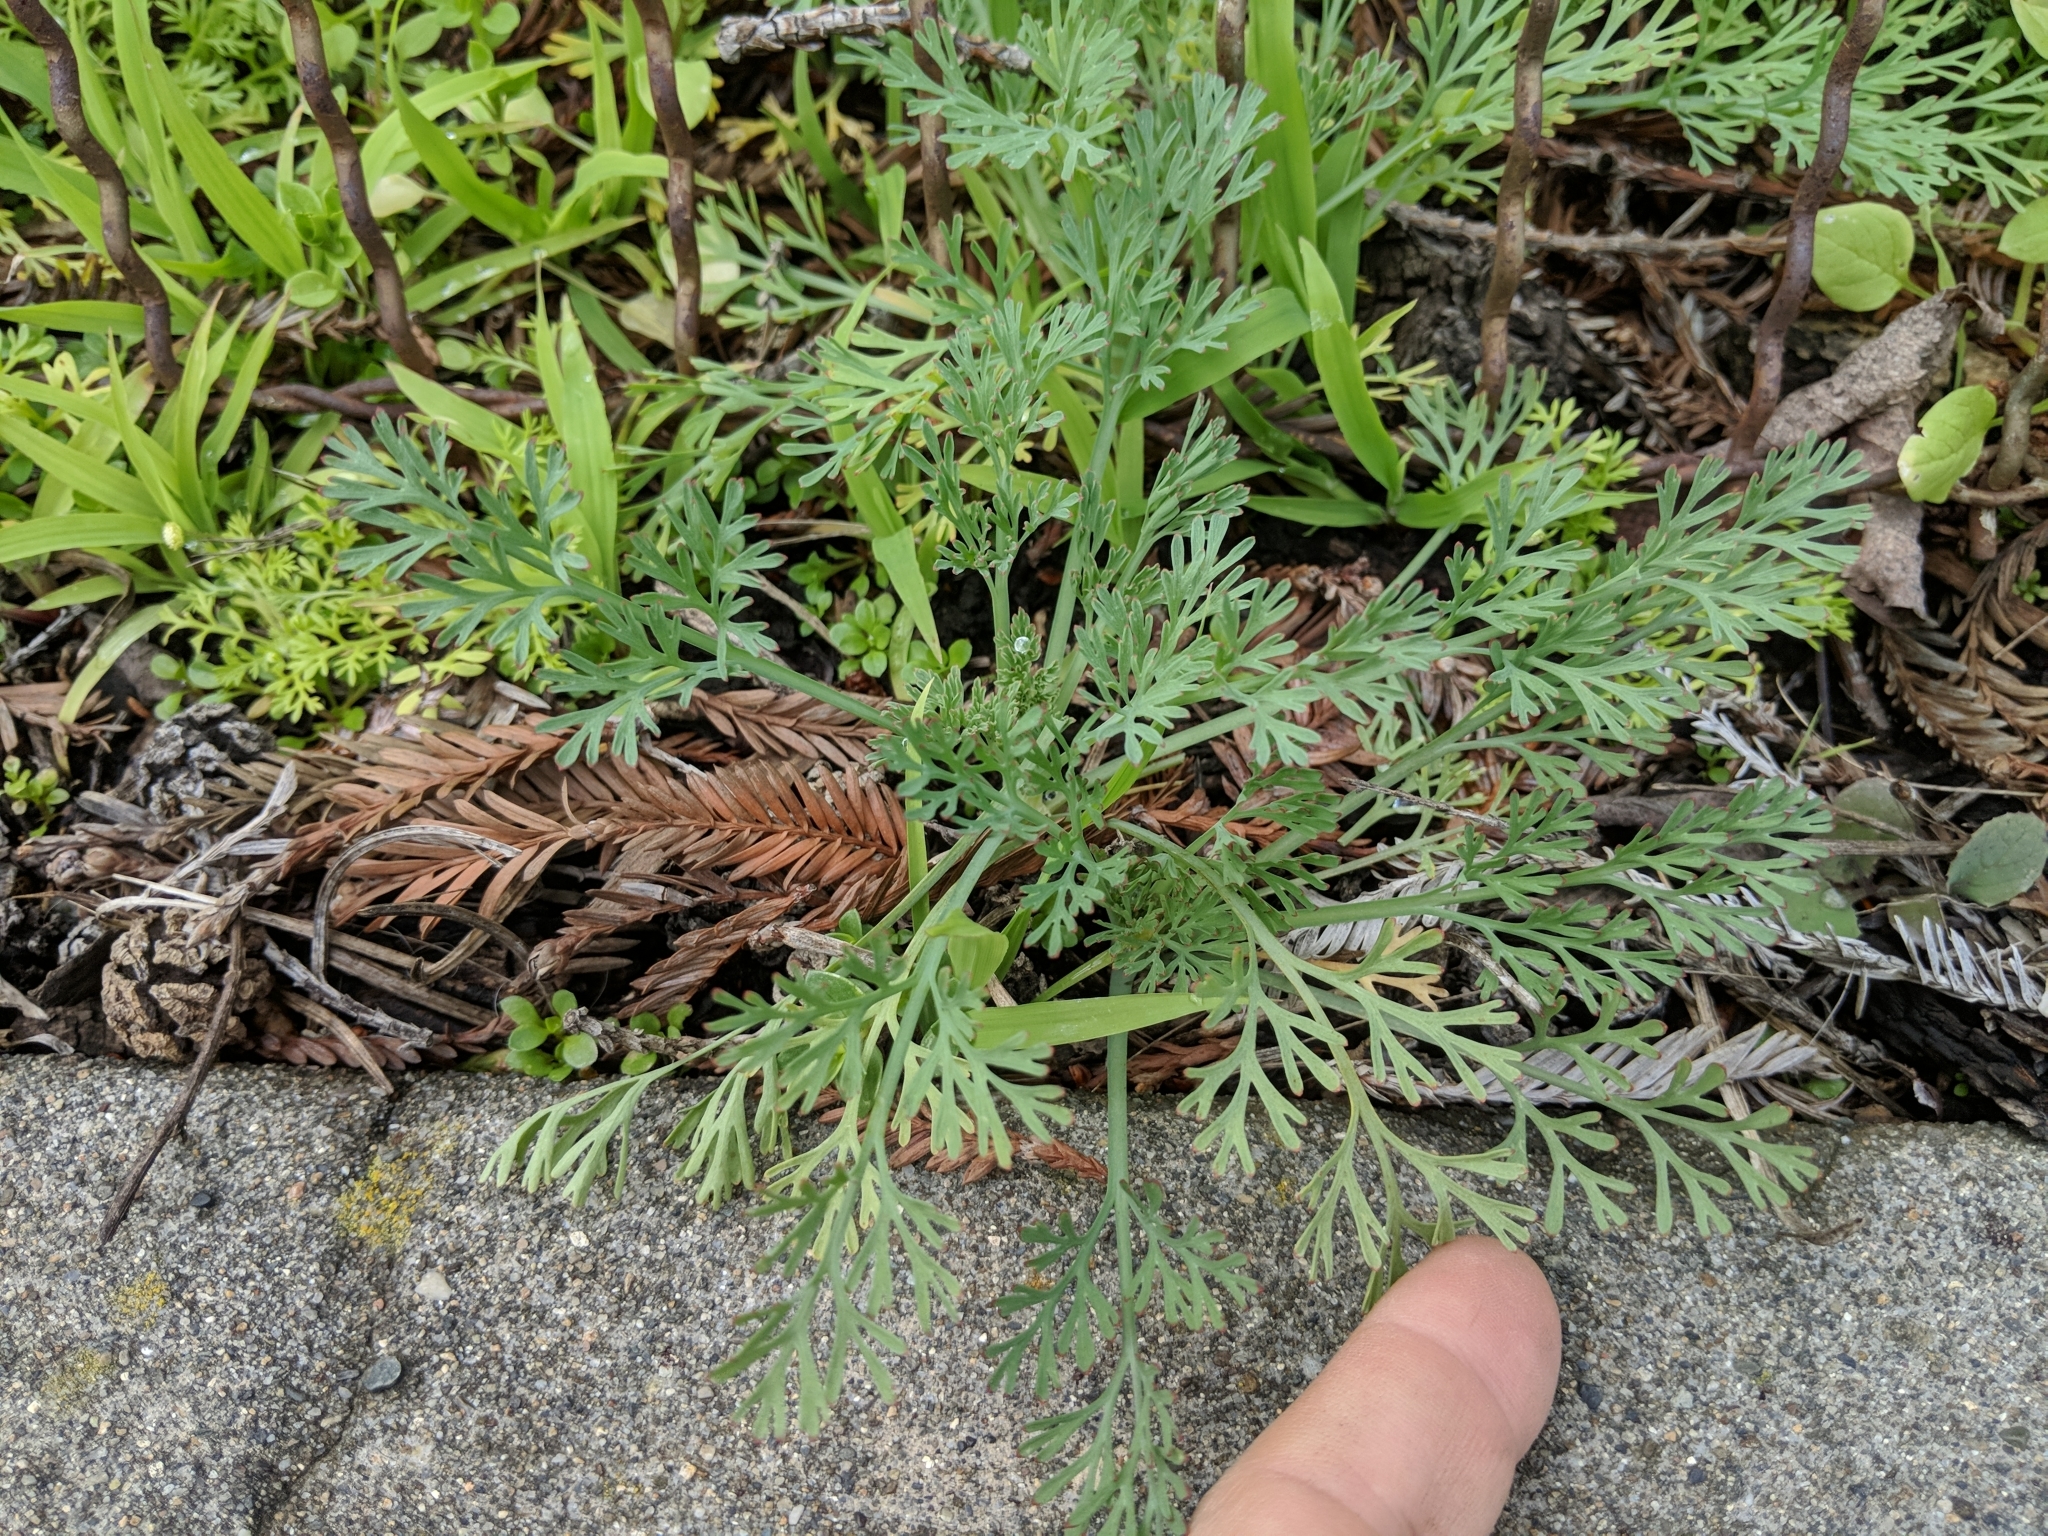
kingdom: Plantae
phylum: Tracheophyta
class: Magnoliopsida
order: Ranunculales
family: Papaveraceae
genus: Eschscholzia
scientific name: Eschscholzia californica
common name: California poppy
